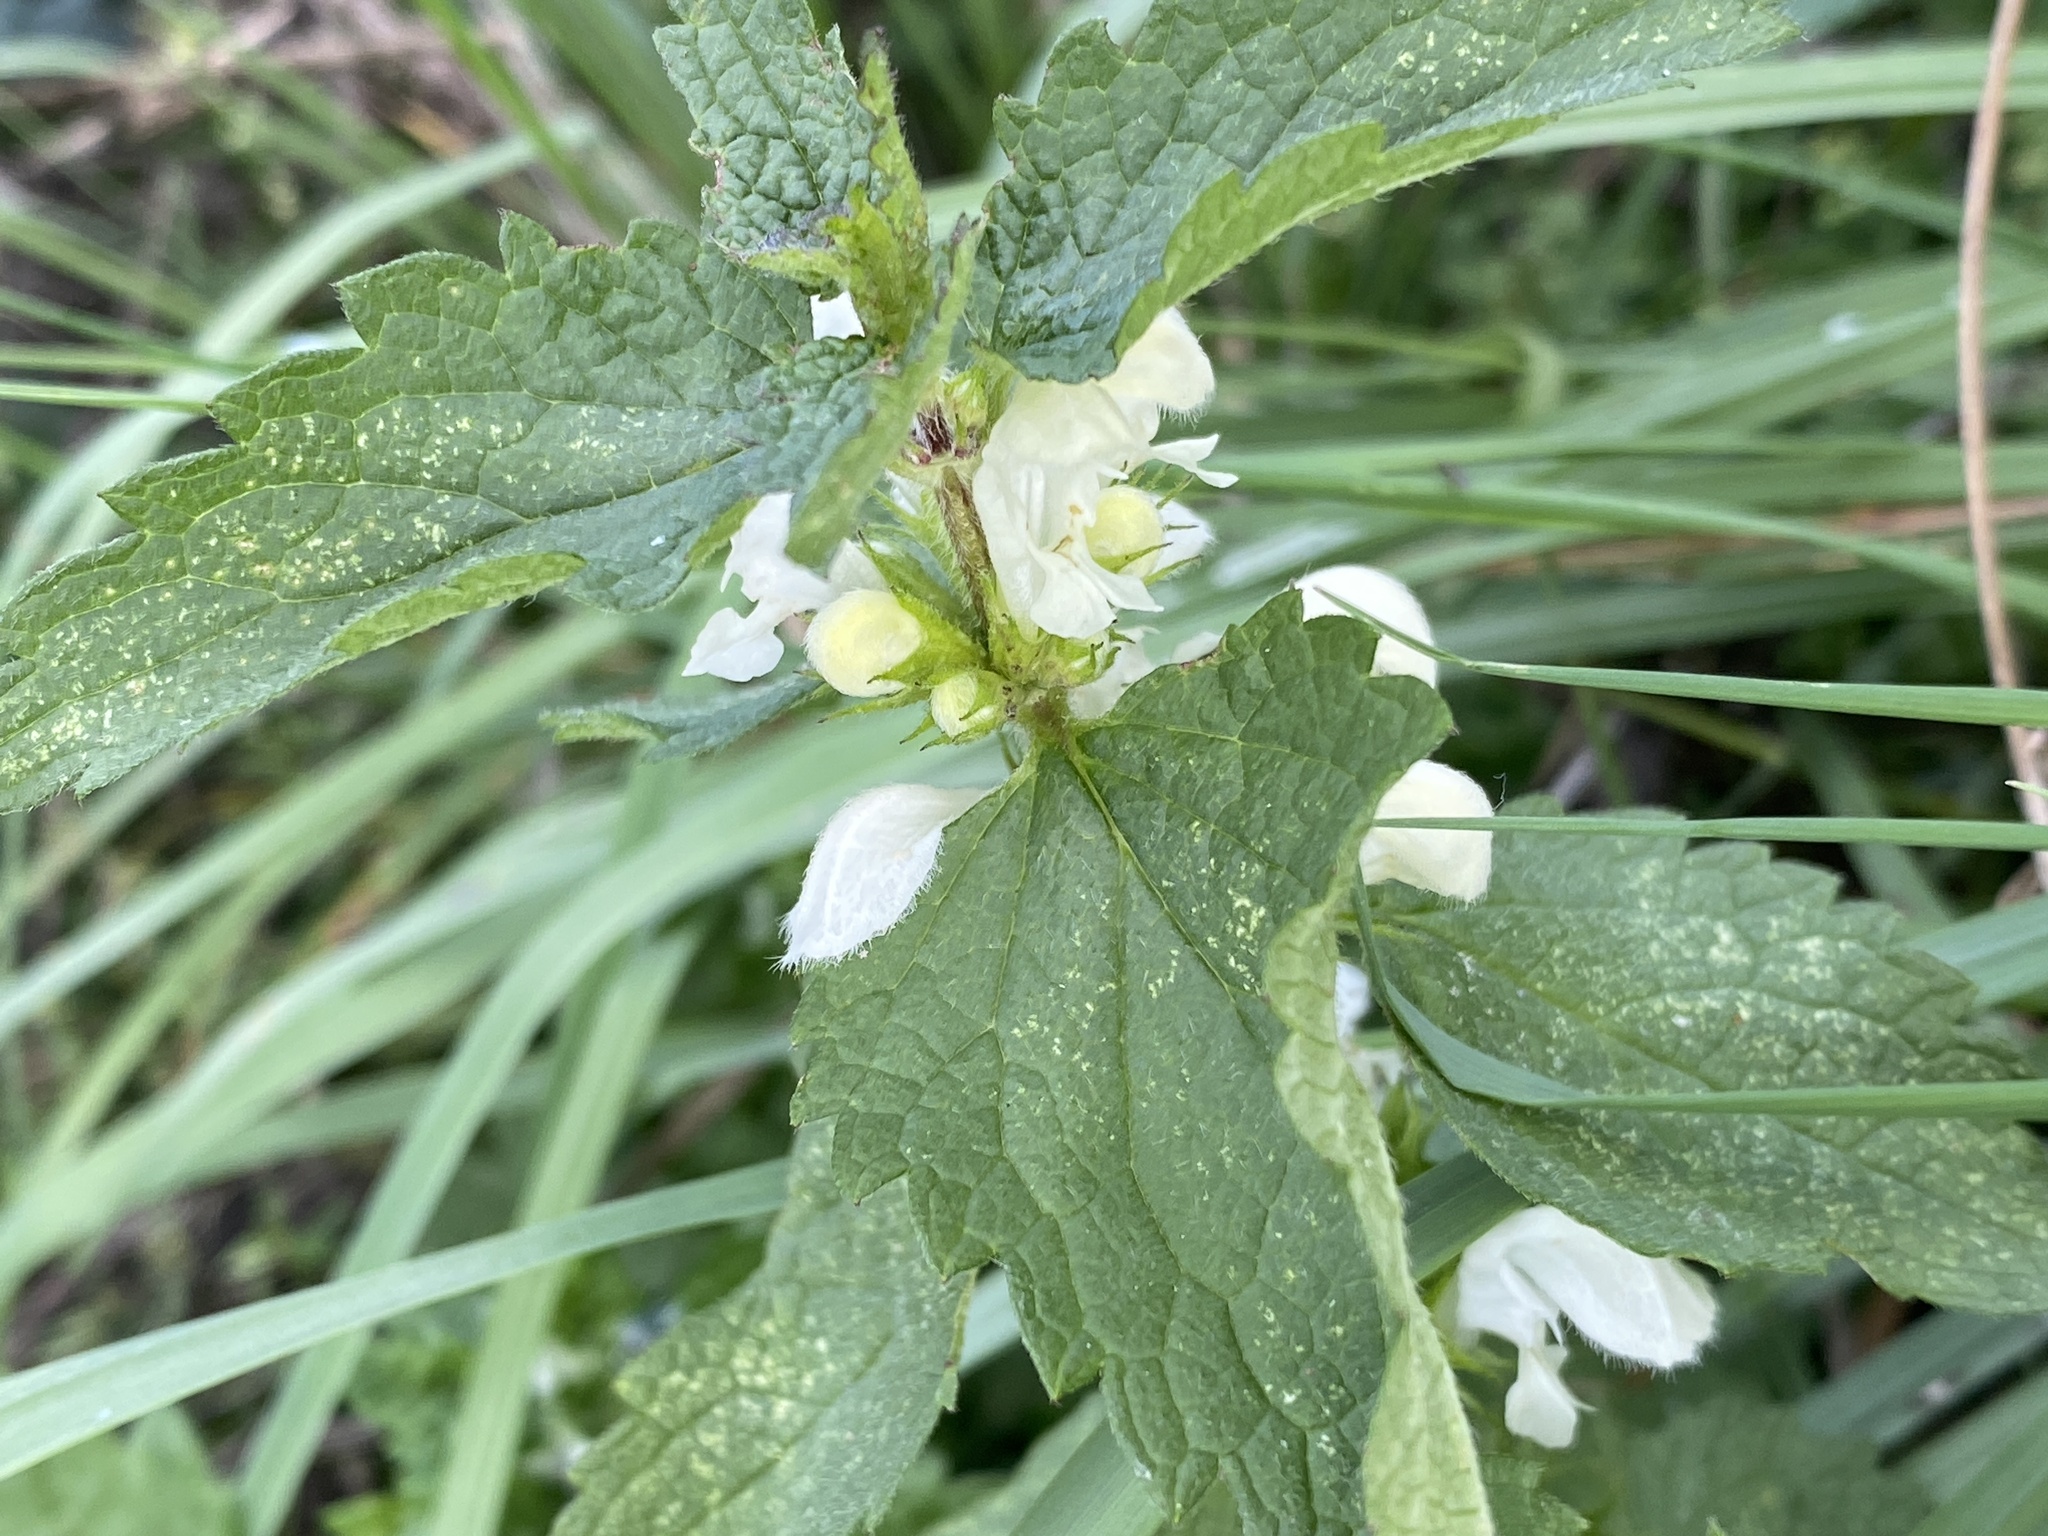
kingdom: Plantae
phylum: Tracheophyta
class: Magnoliopsida
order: Lamiales
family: Lamiaceae
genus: Lamium
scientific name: Lamium album
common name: White dead-nettle
